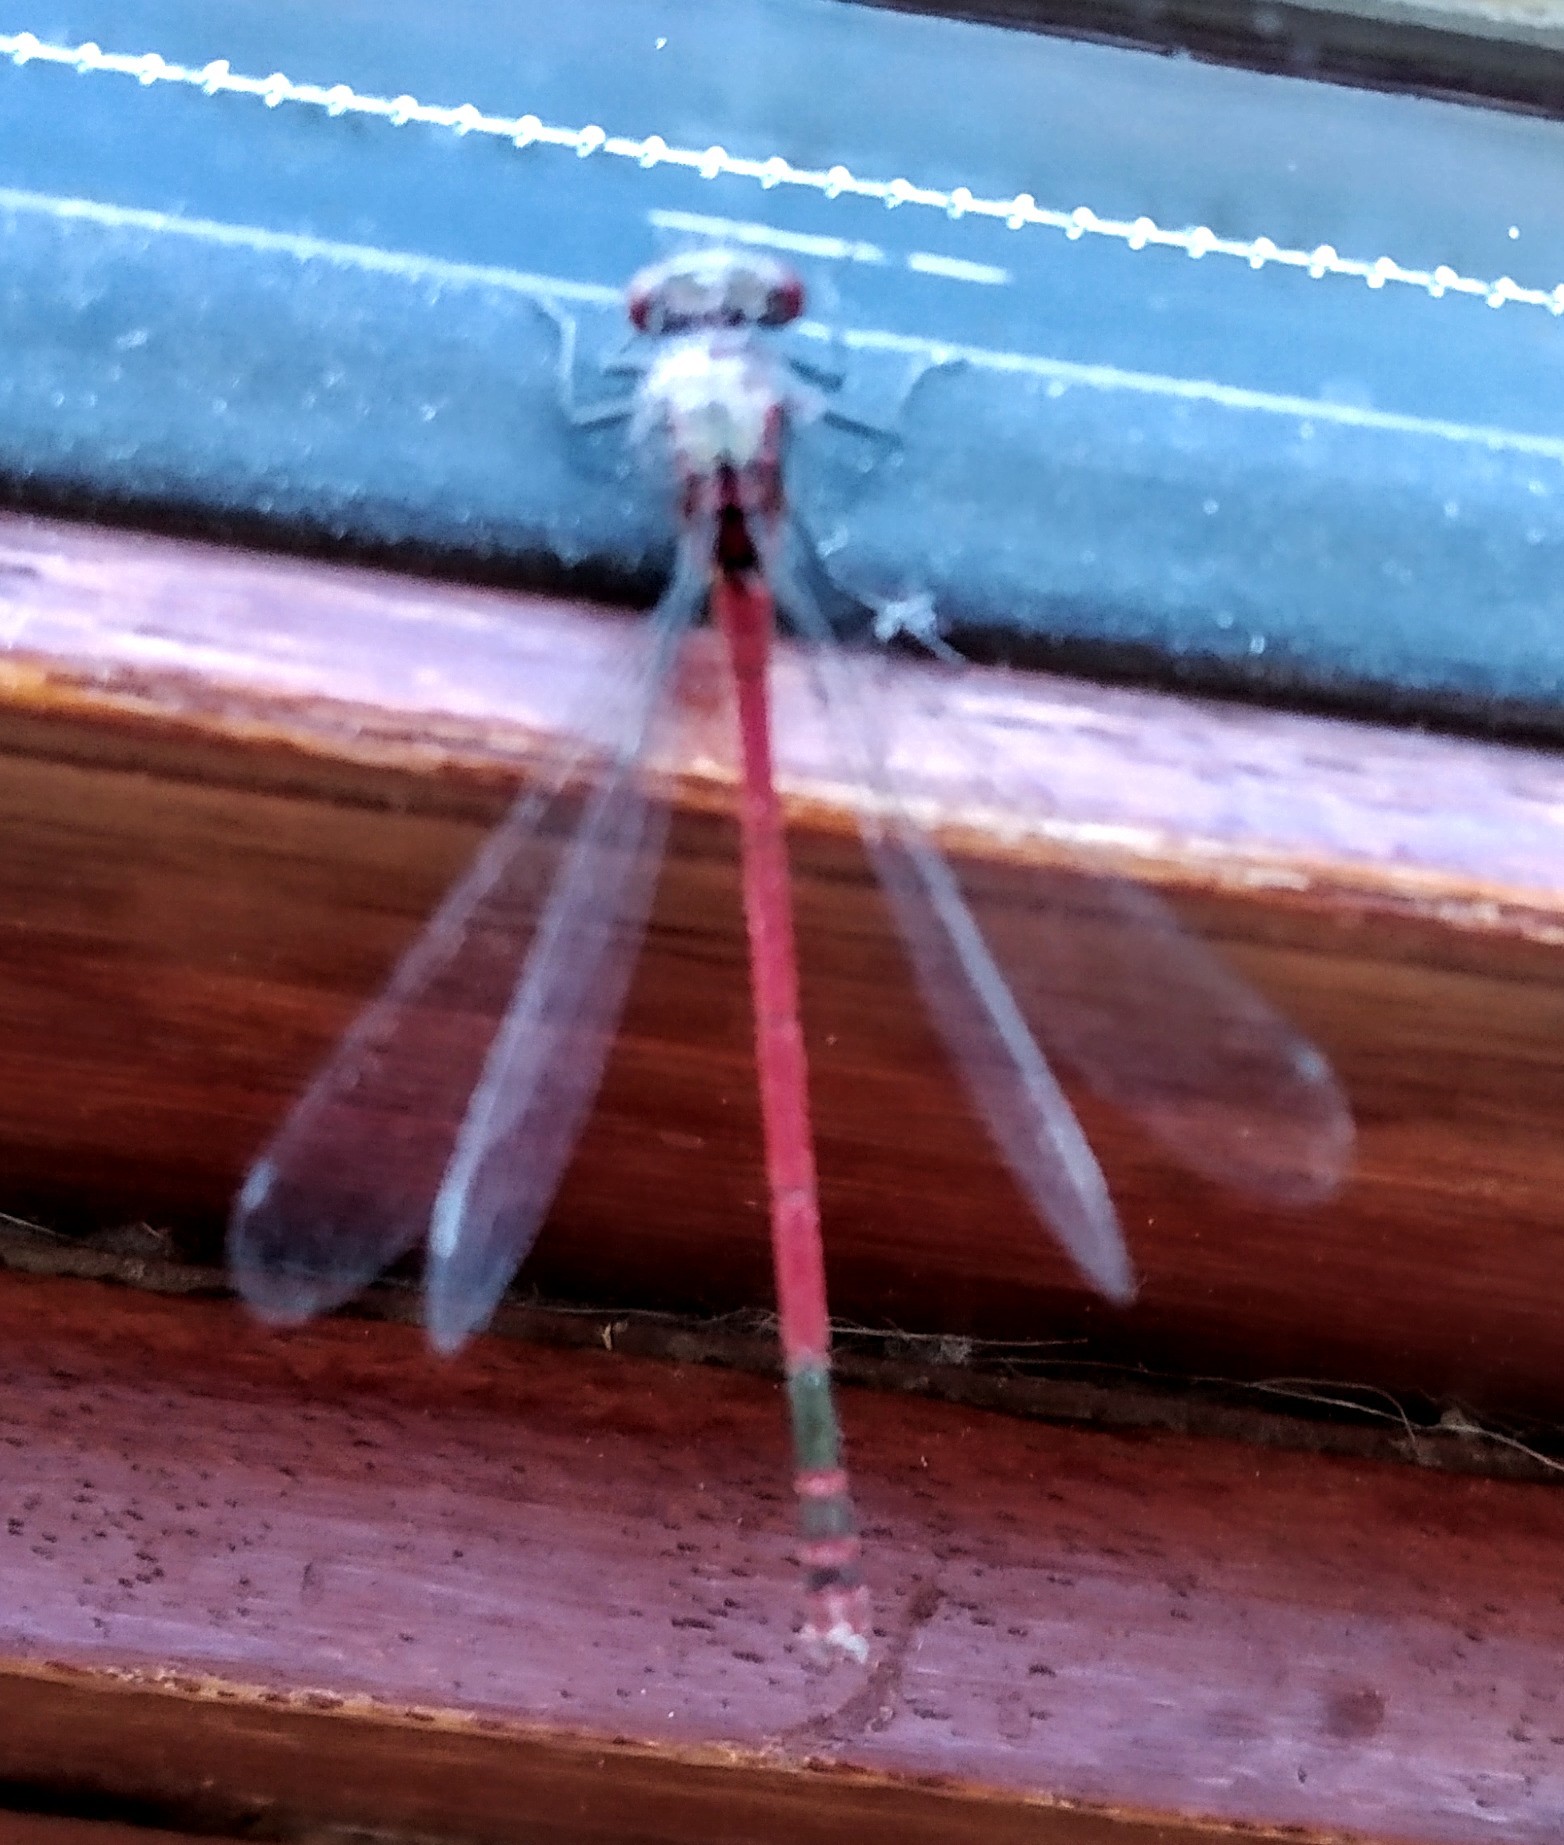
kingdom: Animalia
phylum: Arthropoda
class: Insecta
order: Odonata
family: Coenagrionidae
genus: Pyrrhosoma
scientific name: Pyrrhosoma nymphula
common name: Large red damsel
